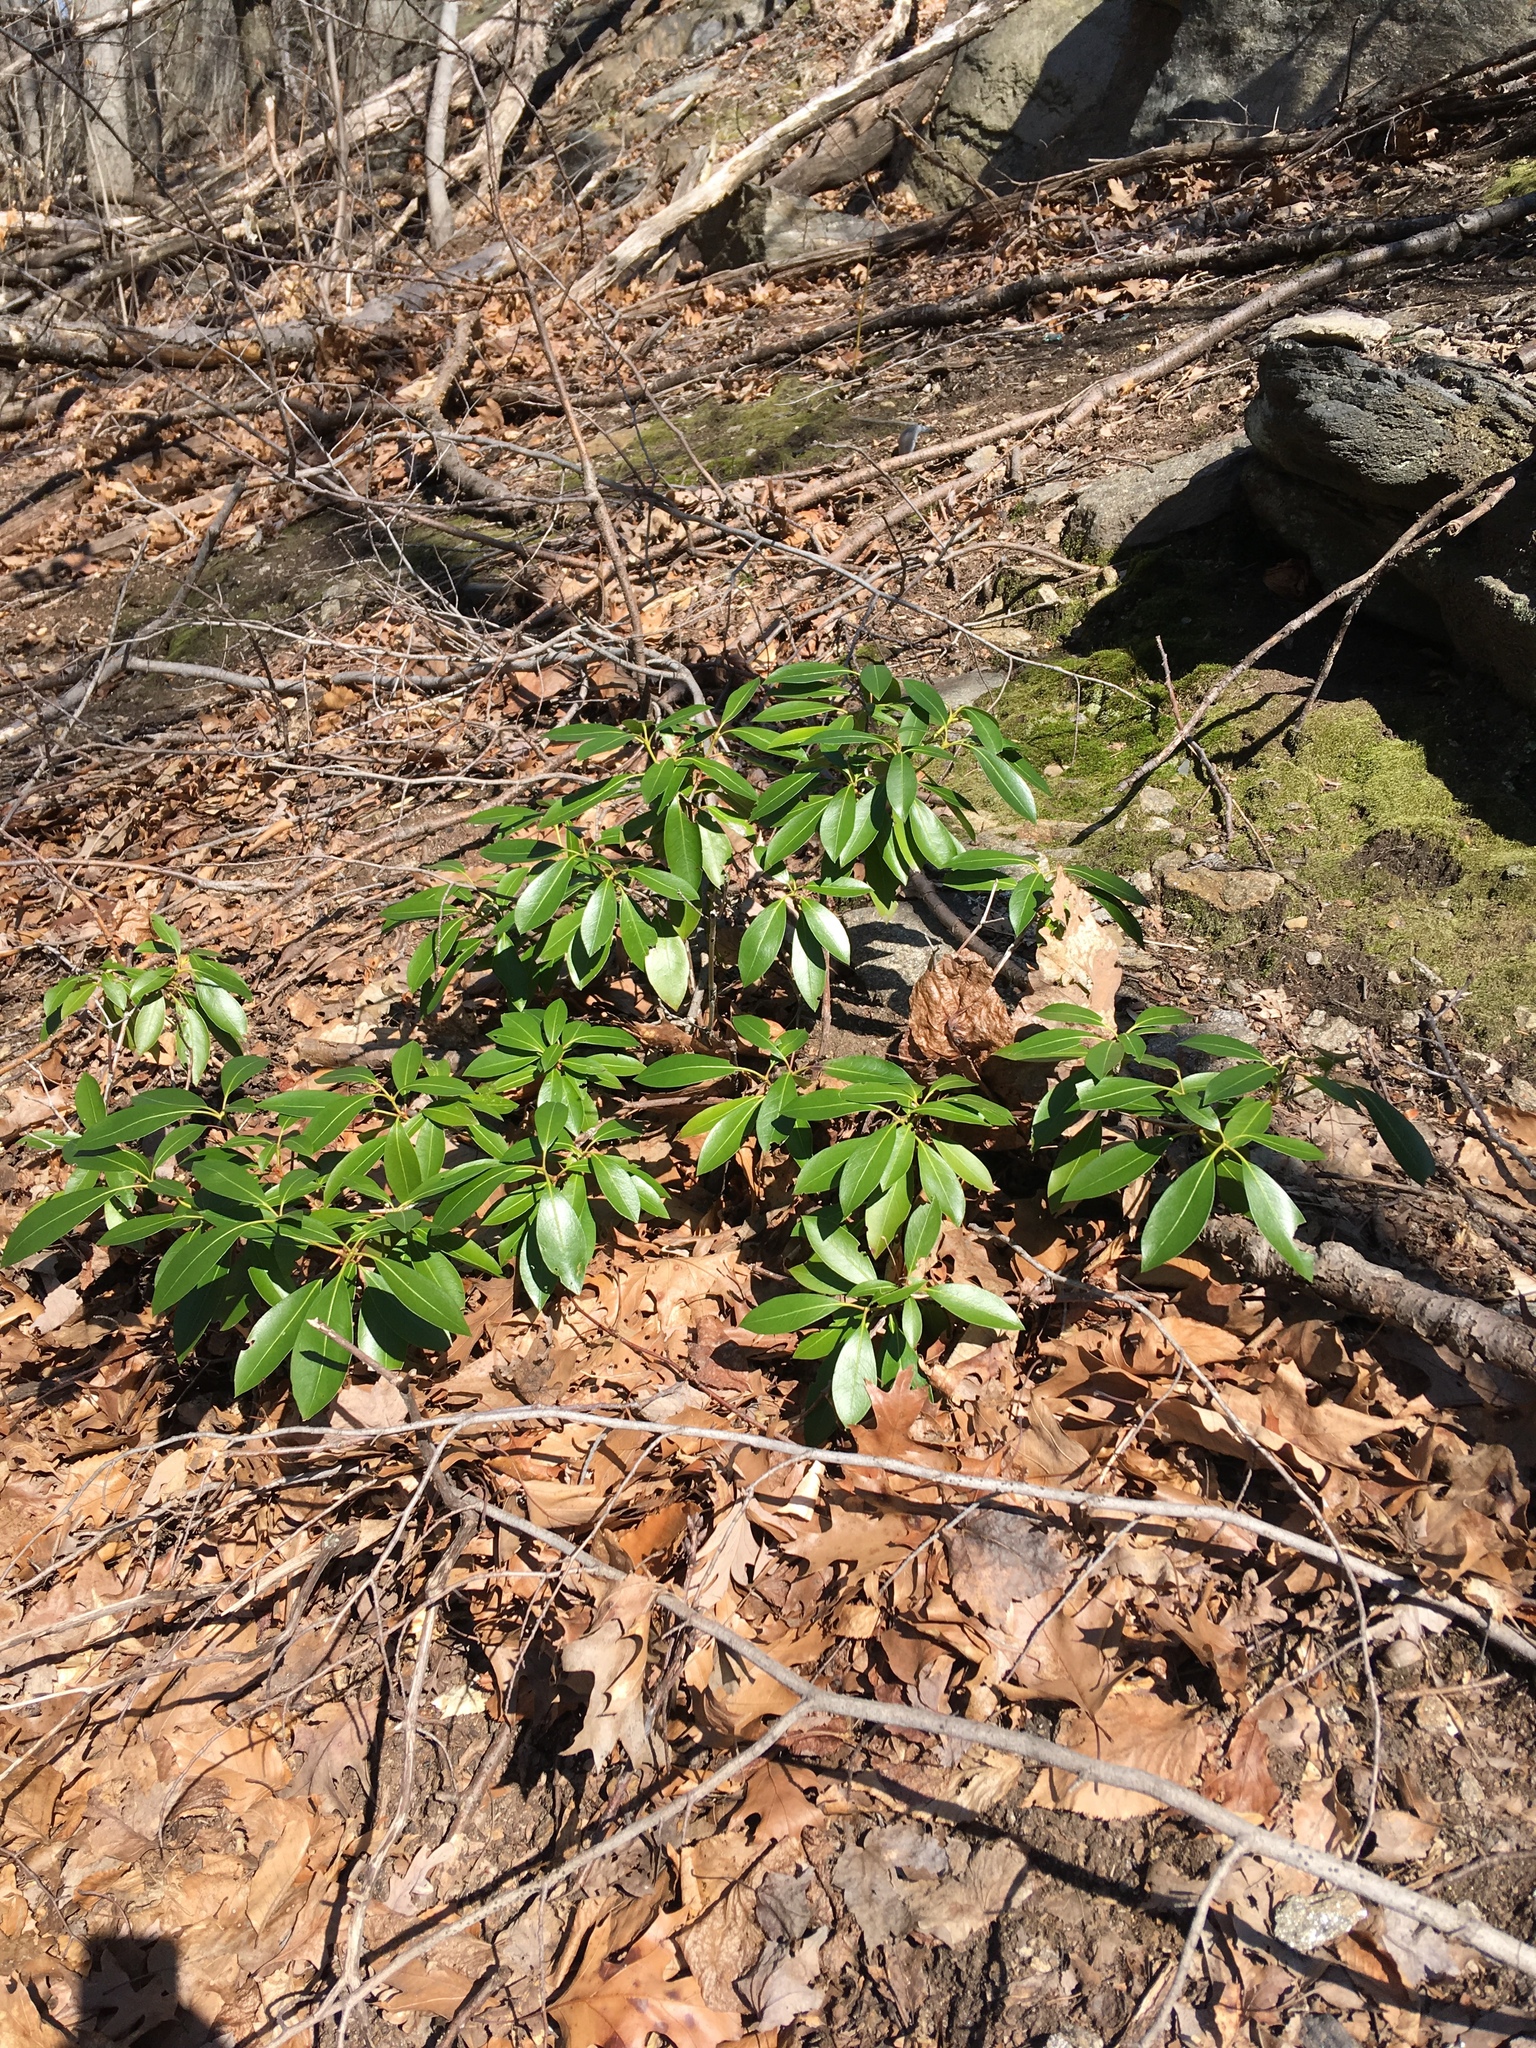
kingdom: Plantae
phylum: Tracheophyta
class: Magnoliopsida
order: Ericales
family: Ericaceae
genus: Kalmia
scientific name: Kalmia latifolia
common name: Mountain-laurel
